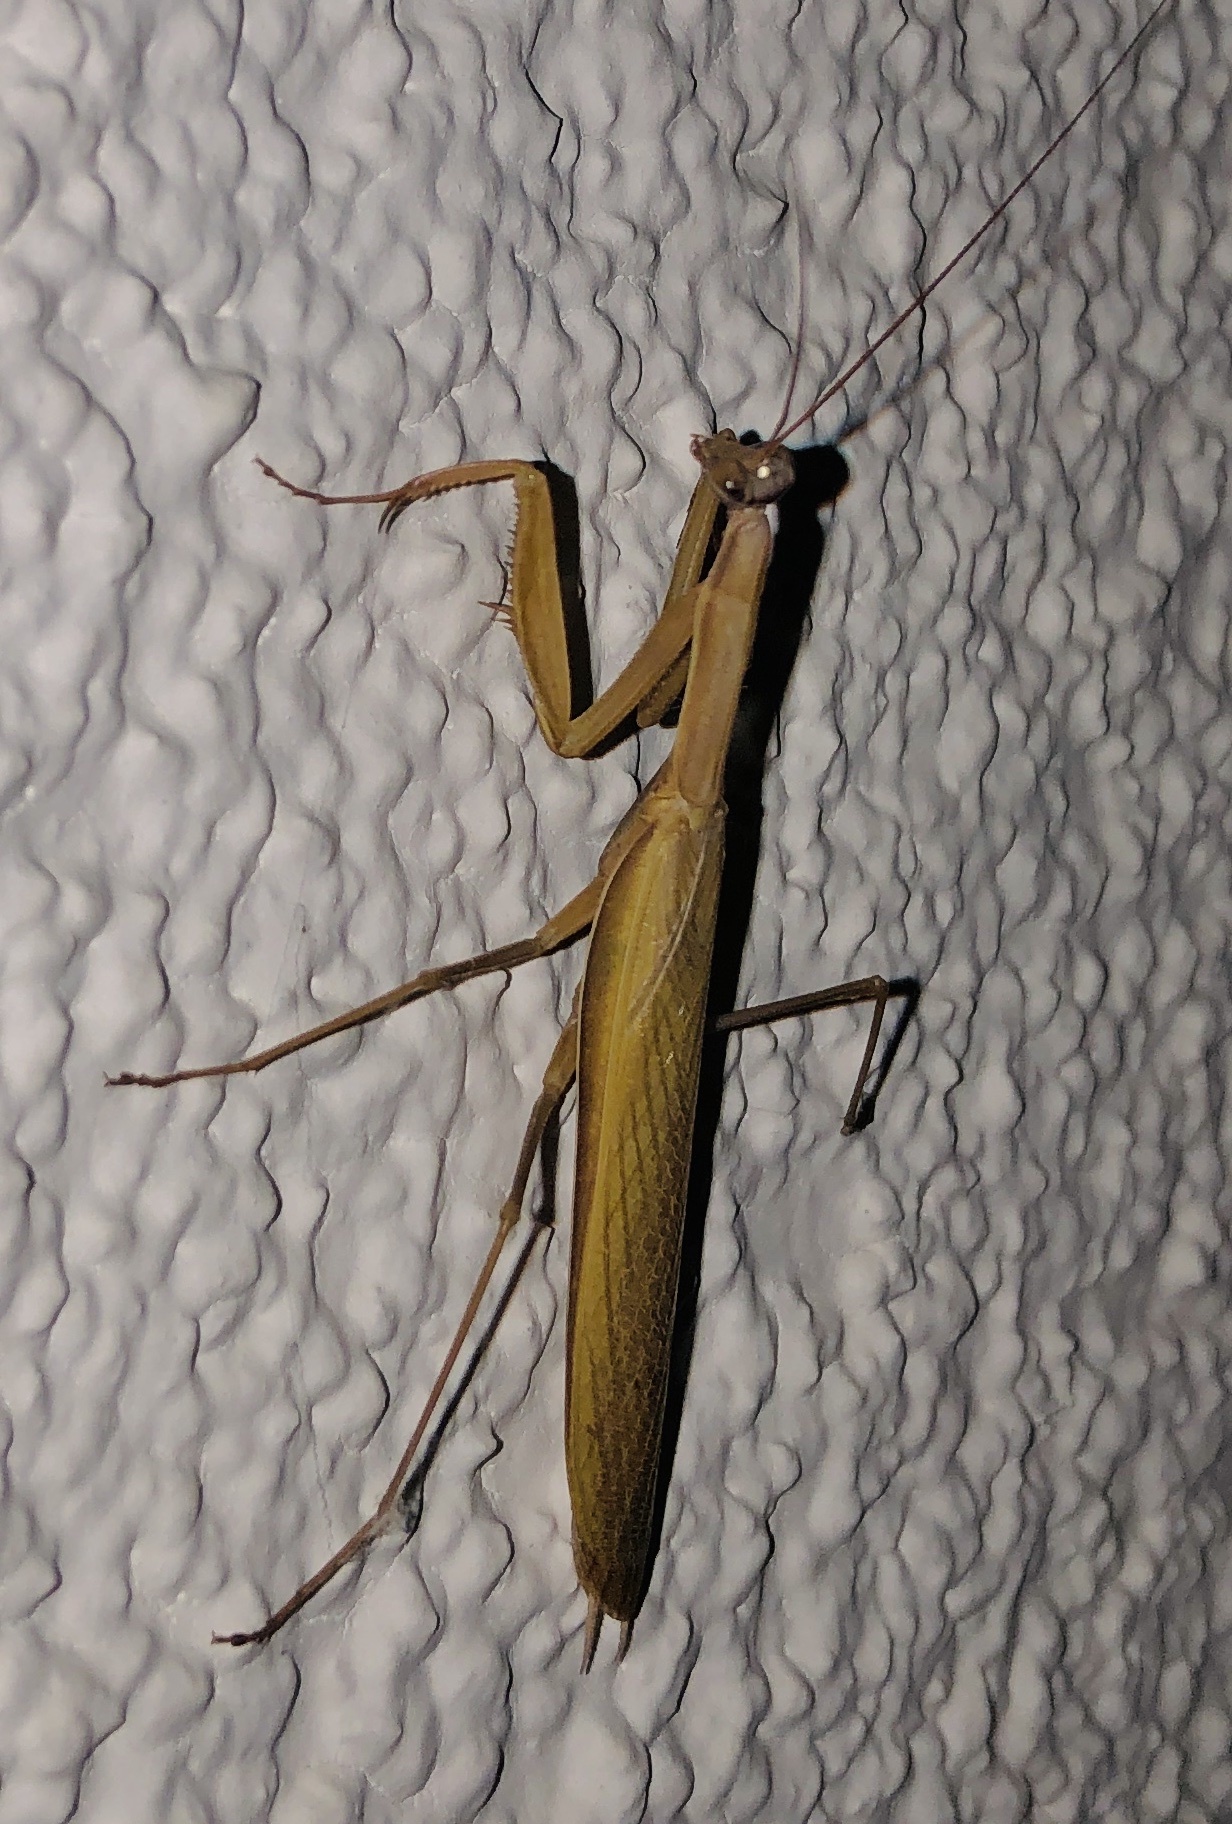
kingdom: Animalia
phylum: Arthropoda
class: Insecta
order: Mantodea
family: Mantidae
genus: Mantis
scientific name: Mantis religiosa
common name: Praying mantis
